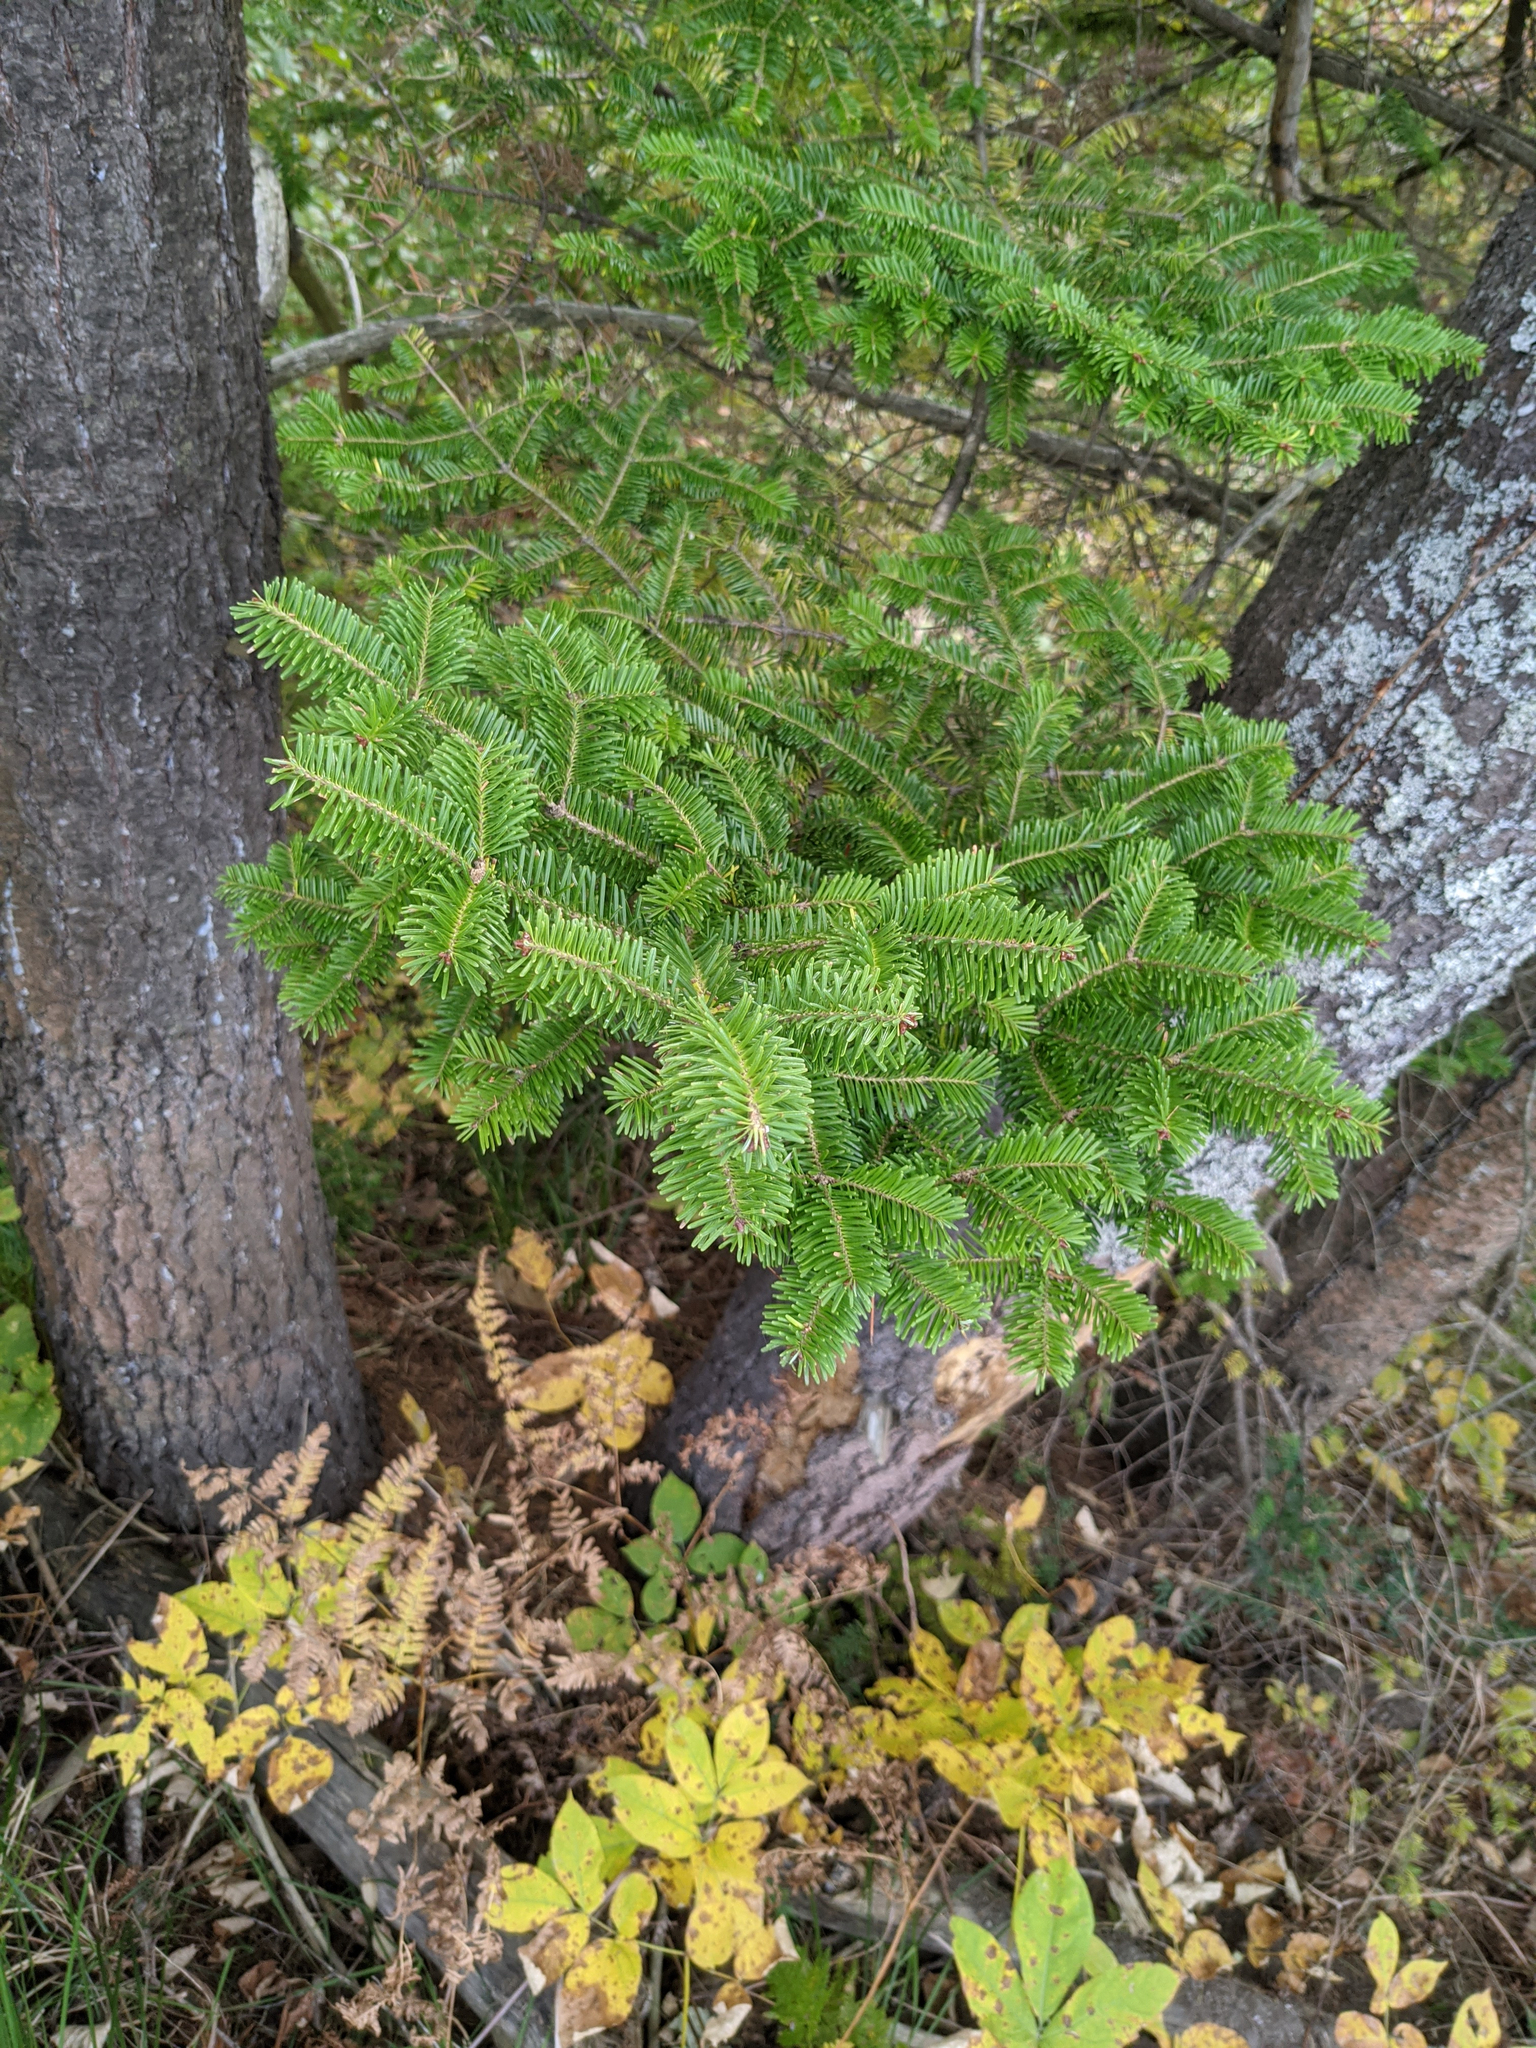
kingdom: Plantae
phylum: Tracheophyta
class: Pinopsida
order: Pinales
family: Pinaceae
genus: Abies
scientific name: Abies balsamea
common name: Balsam fir
